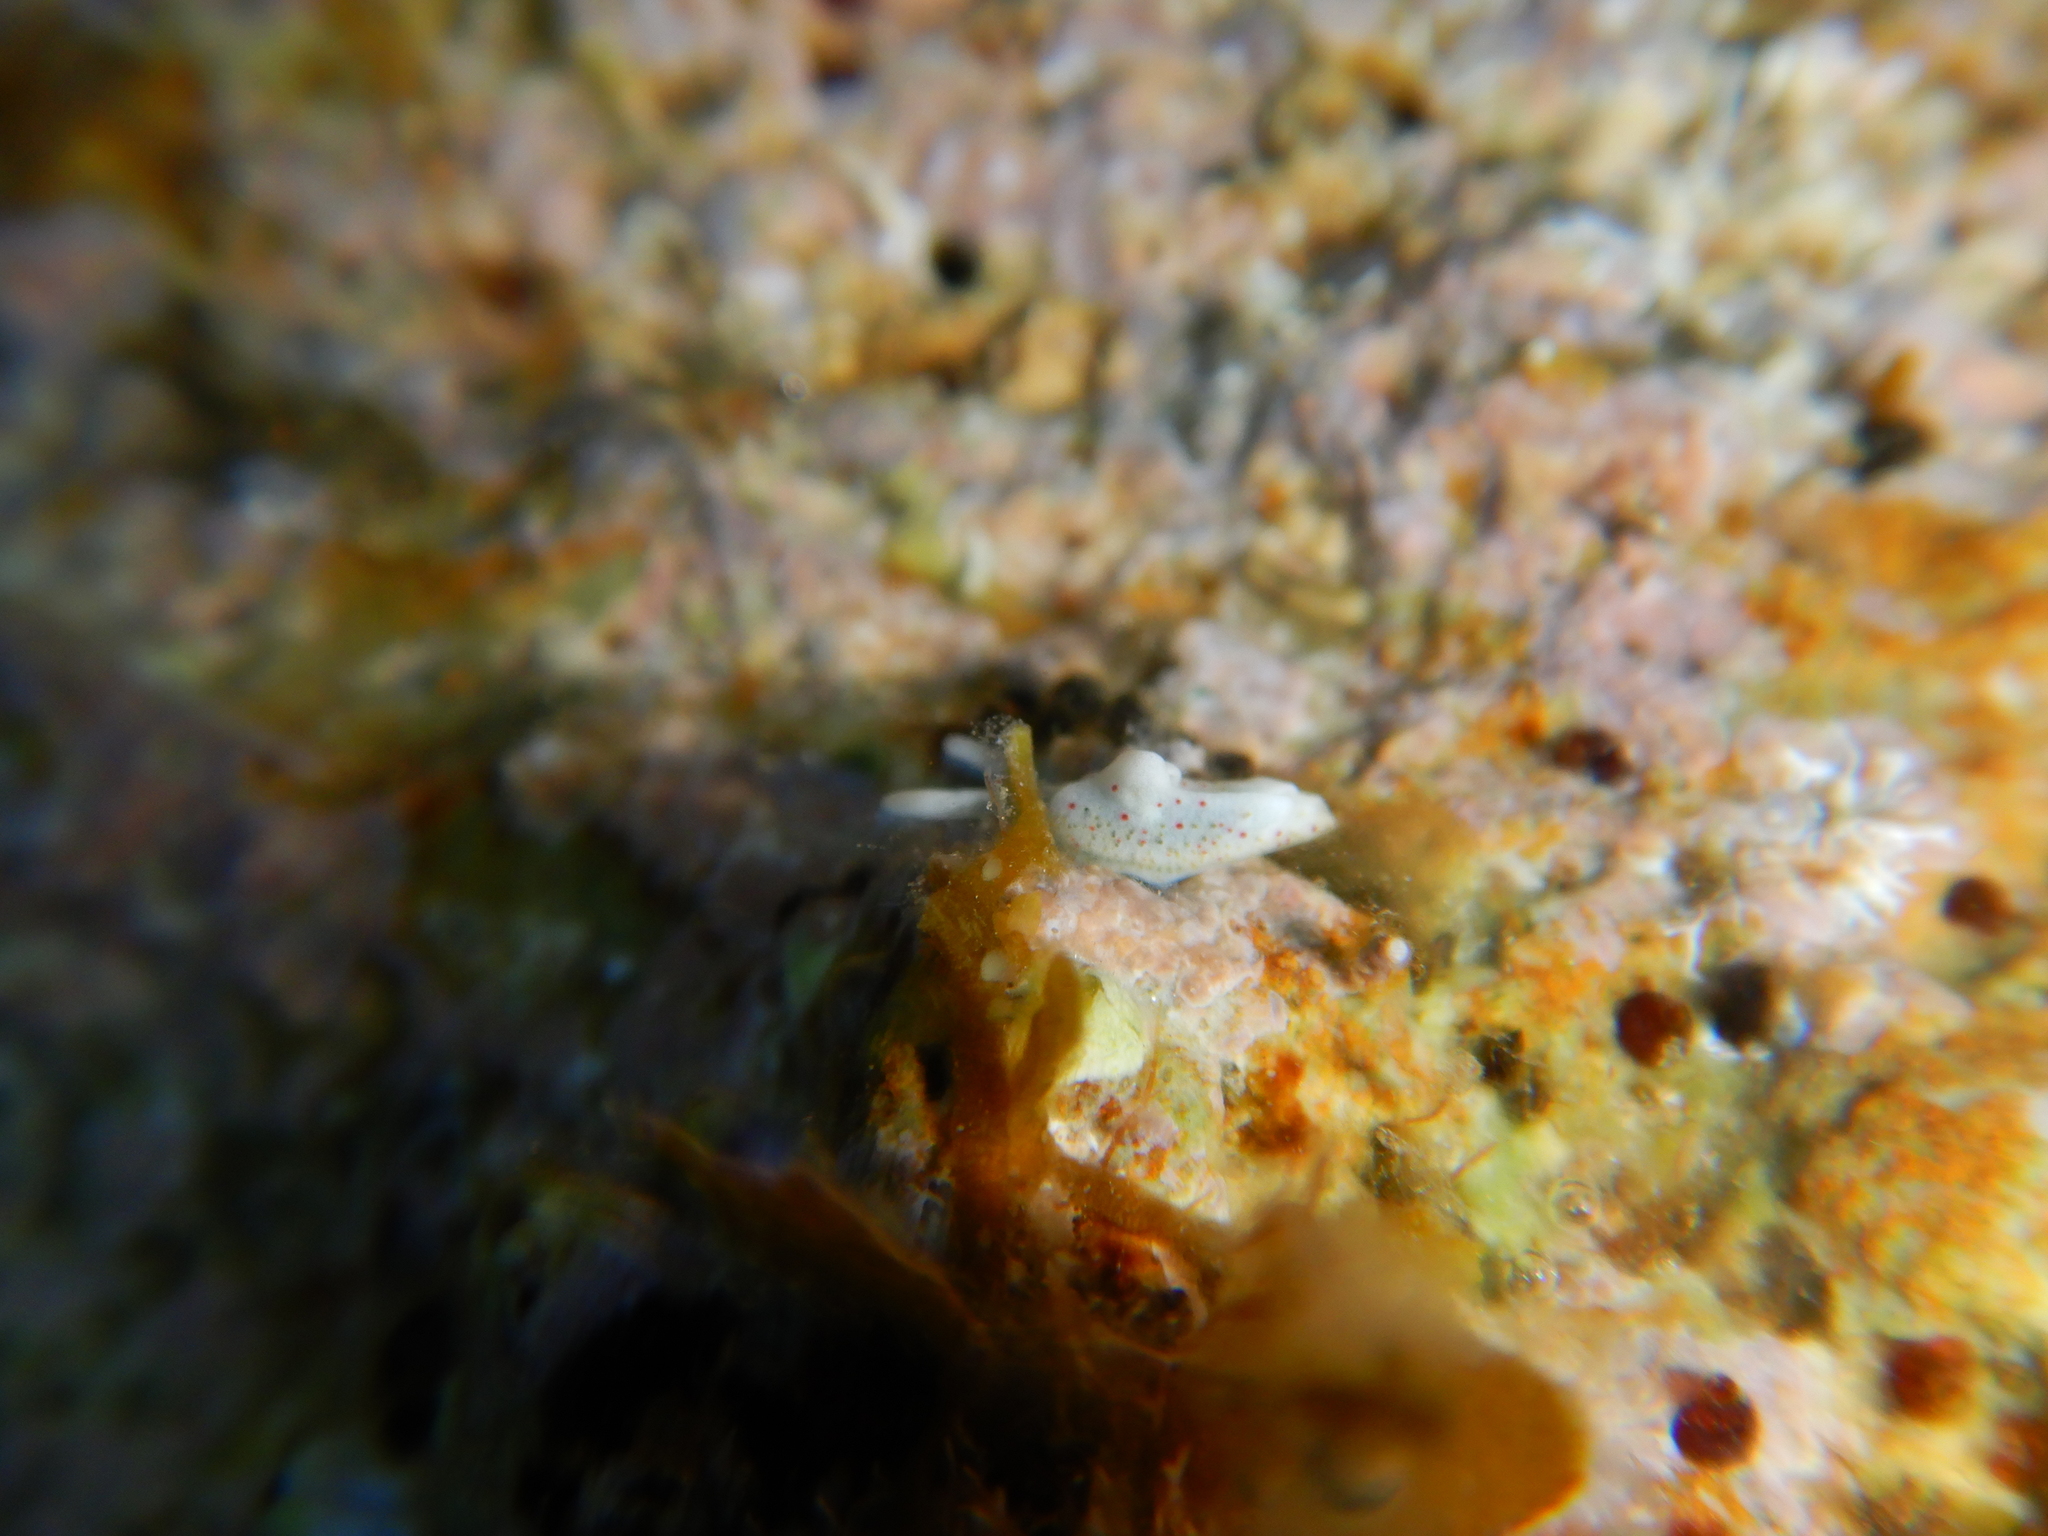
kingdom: Animalia
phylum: Mollusca
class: Gastropoda
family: Plakobranchidae
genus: Elysia
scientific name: Elysia timida
